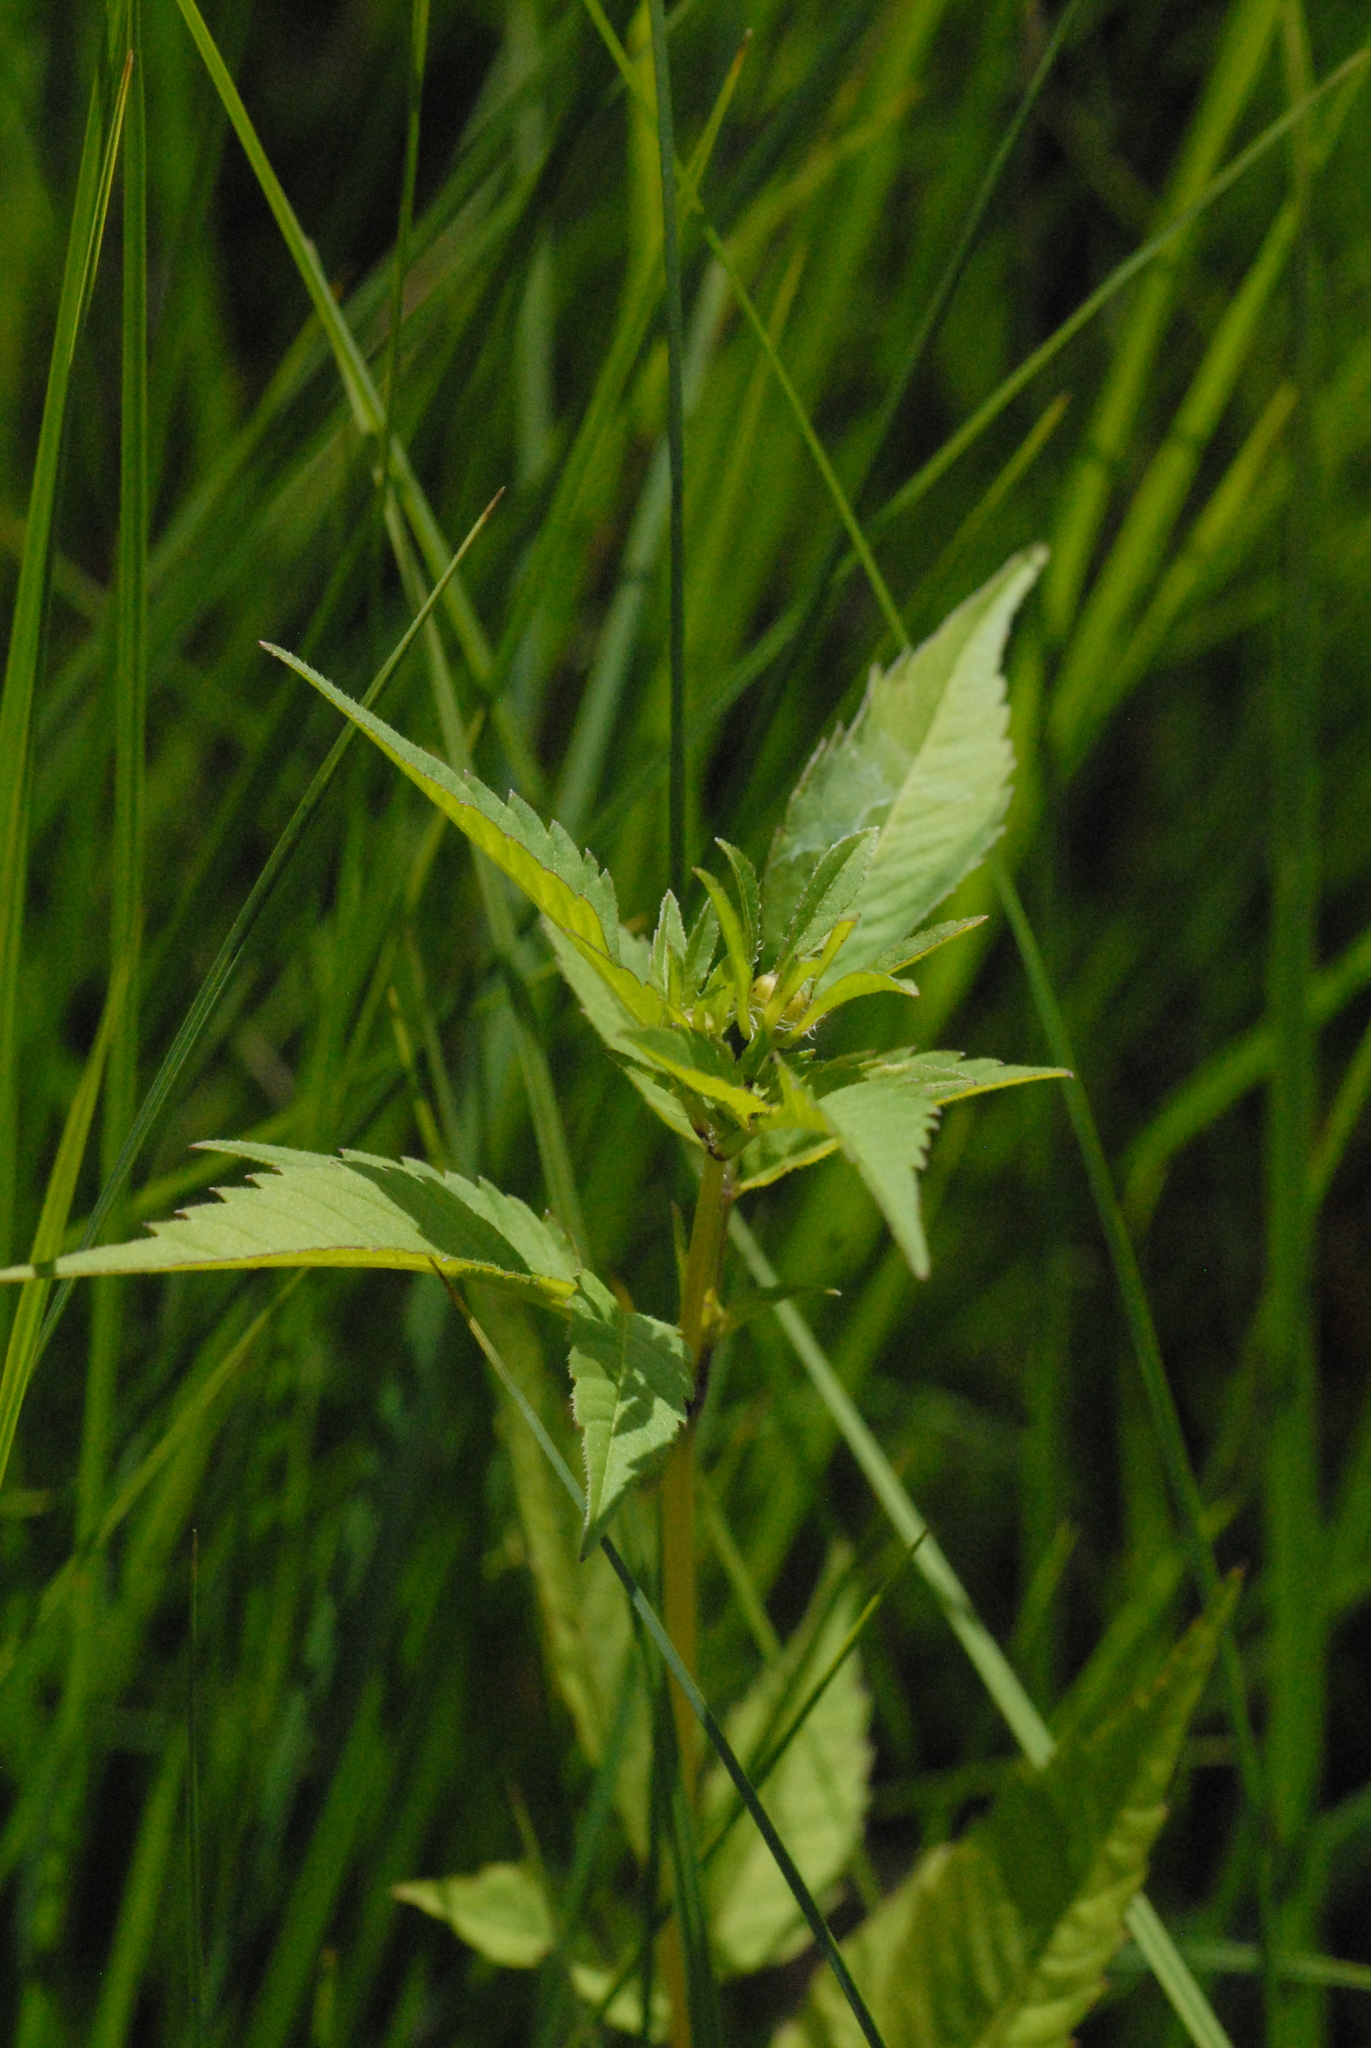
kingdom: Plantae
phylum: Tracheophyta
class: Magnoliopsida
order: Asterales
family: Asteraceae
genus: Bidens
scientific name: Bidens frondosa
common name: Beggarticks
